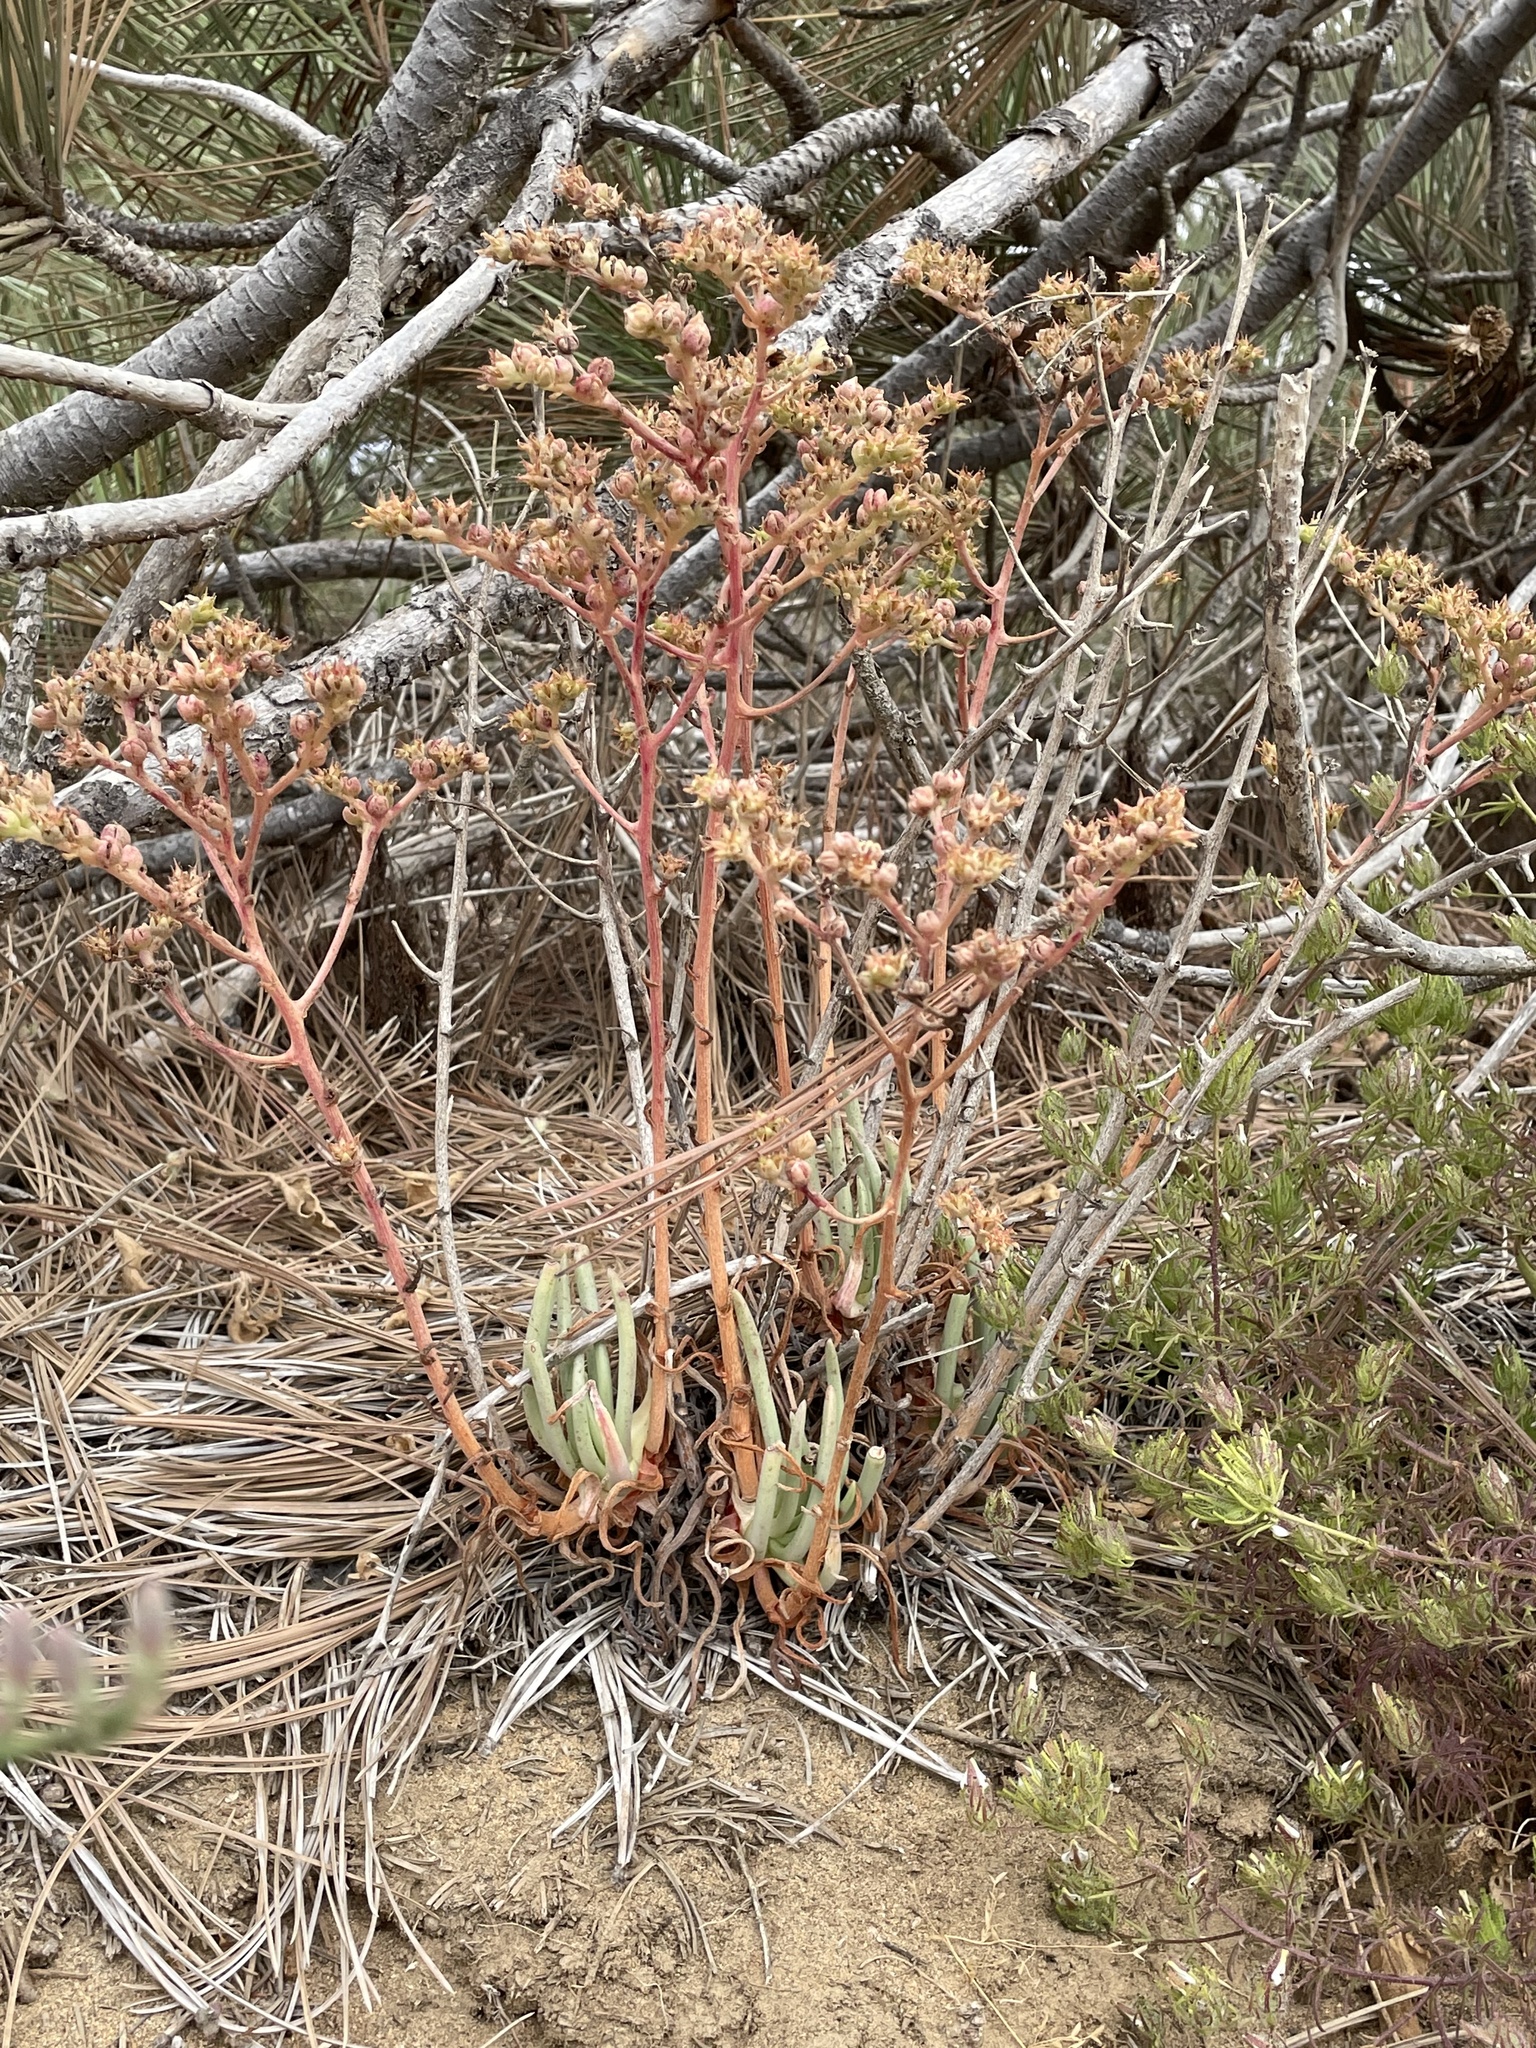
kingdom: Plantae
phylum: Tracheophyta
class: Magnoliopsida
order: Saxifragales
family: Crassulaceae
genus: Dudleya
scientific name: Dudleya edulis
